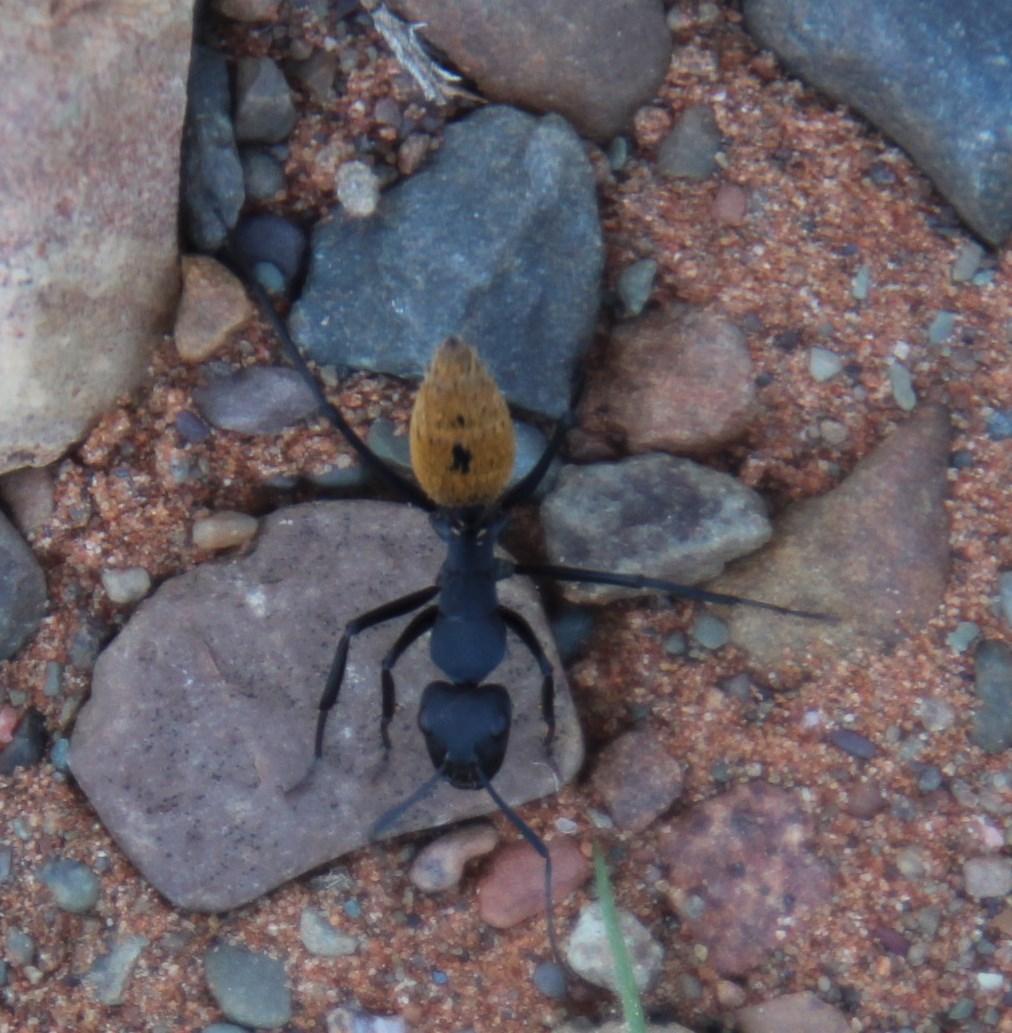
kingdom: Animalia
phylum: Arthropoda
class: Insecta
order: Hymenoptera
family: Formicidae
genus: Camponotus
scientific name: Camponotus fulvopilosus
